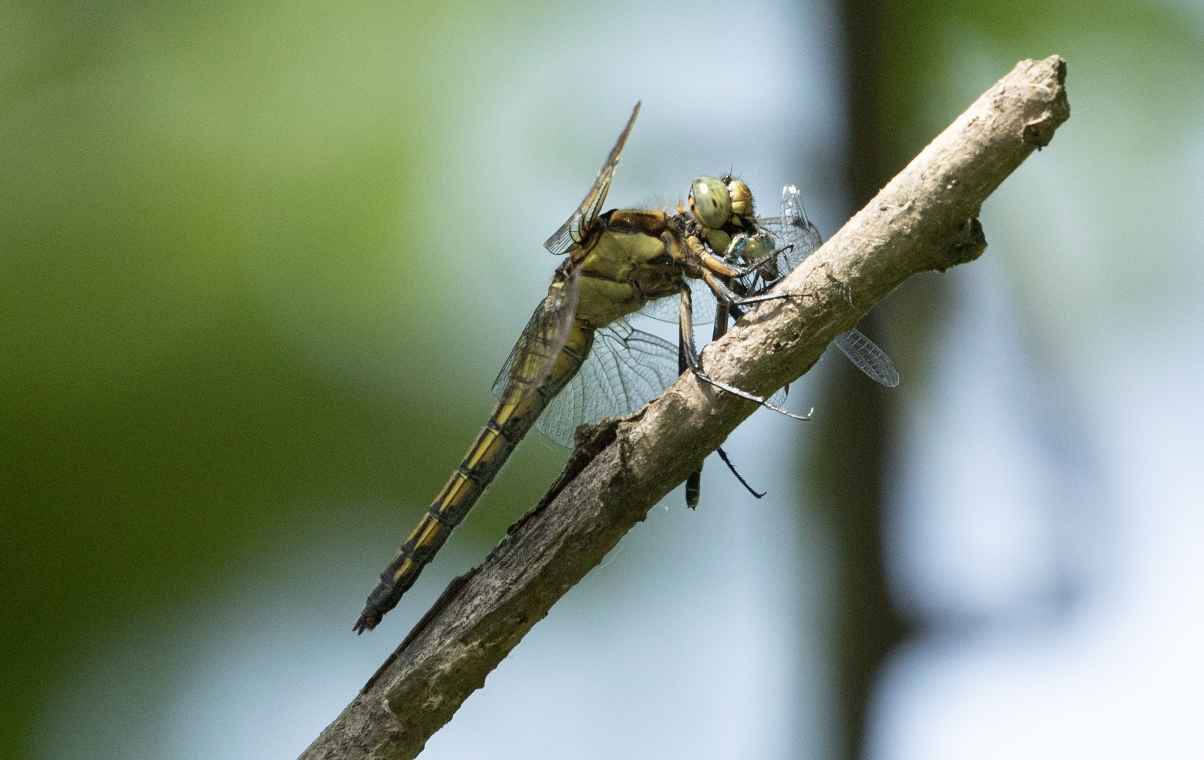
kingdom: Animalia
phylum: Arthropoda
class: Insecta
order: Odonata
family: Libellulidae
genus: Orthetrum
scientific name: Orthetrum cancellatum
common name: Black-tailed skimmer
